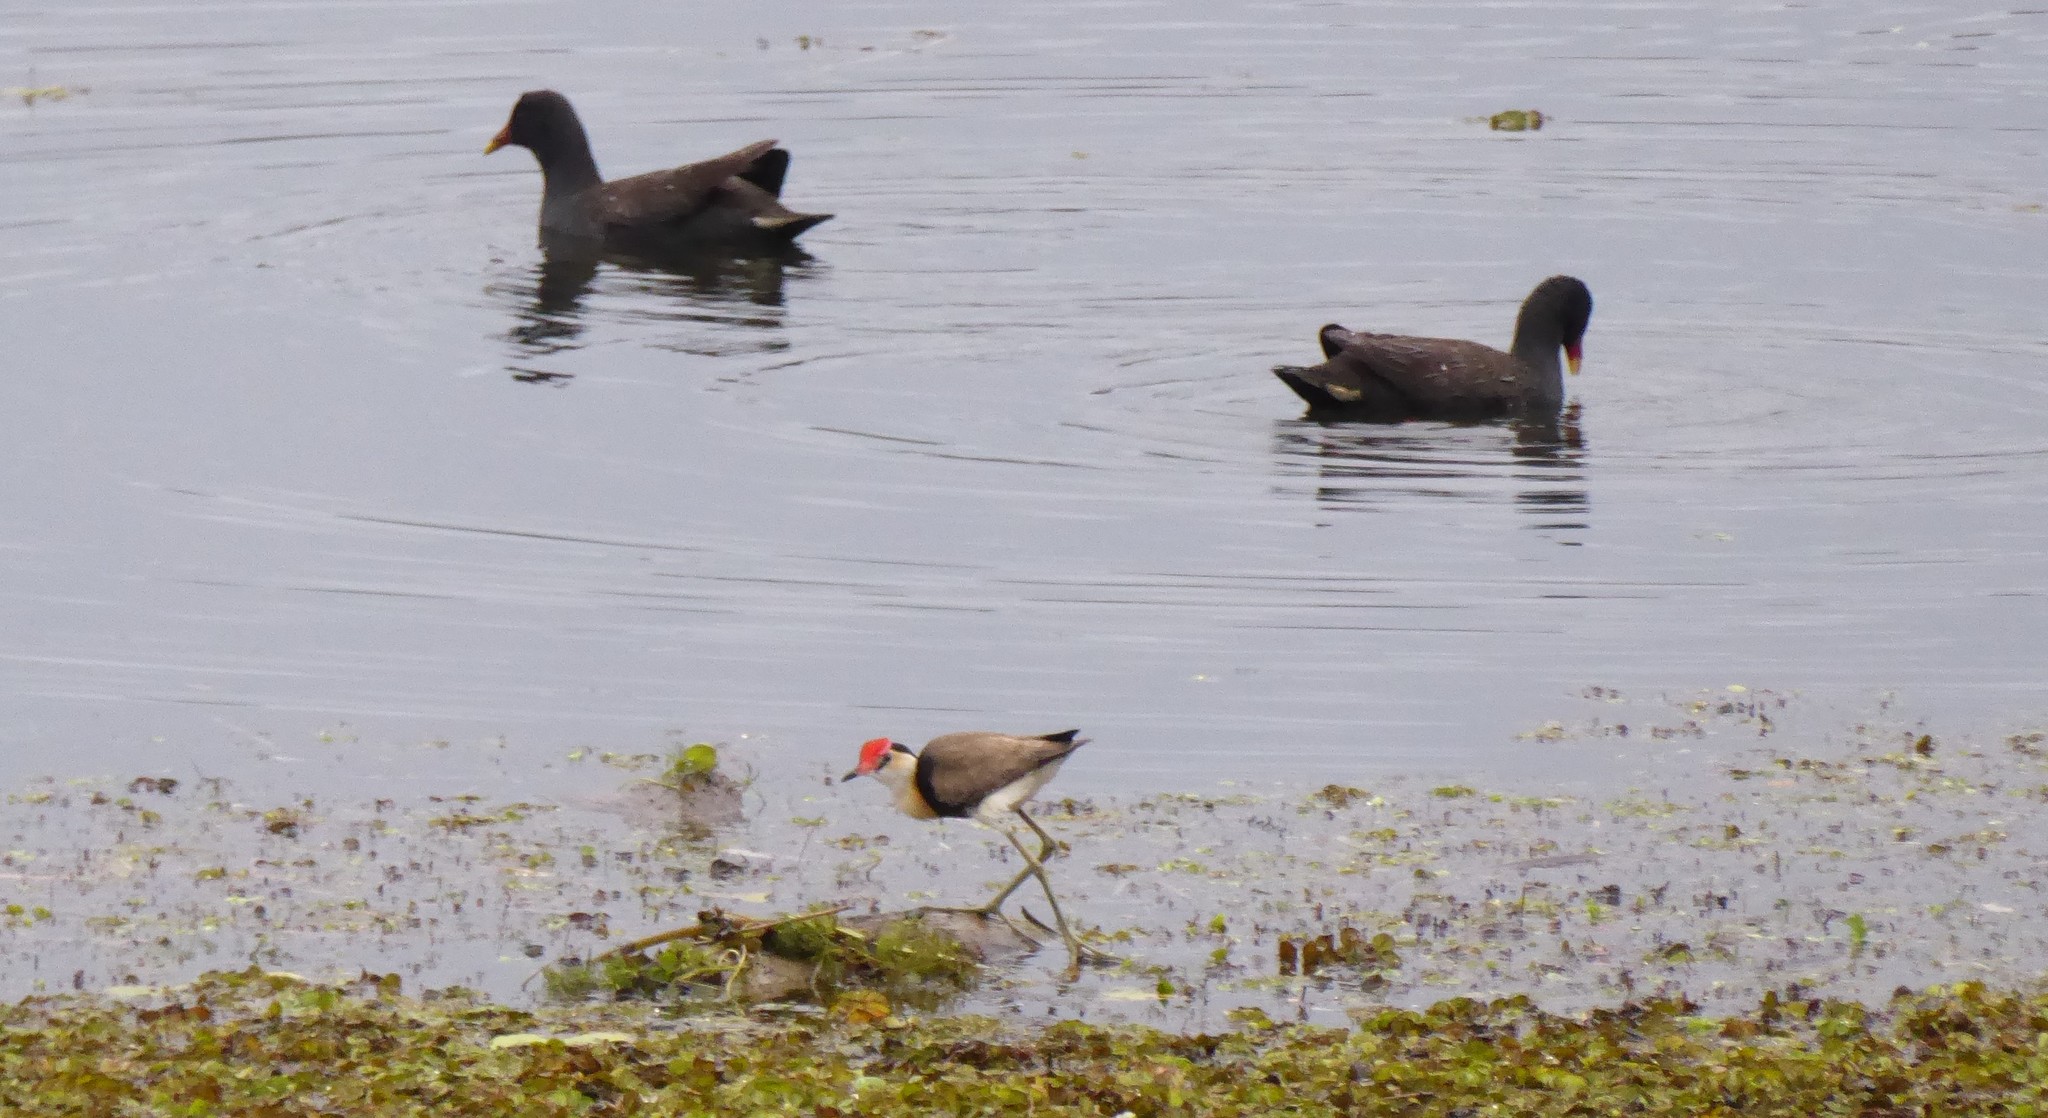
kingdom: Animalia
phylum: Chordata
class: Aves
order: Charadriiformes
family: Jacanidae
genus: Irediparra
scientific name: Irediparra gallinacea
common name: Comb-crested jacana
